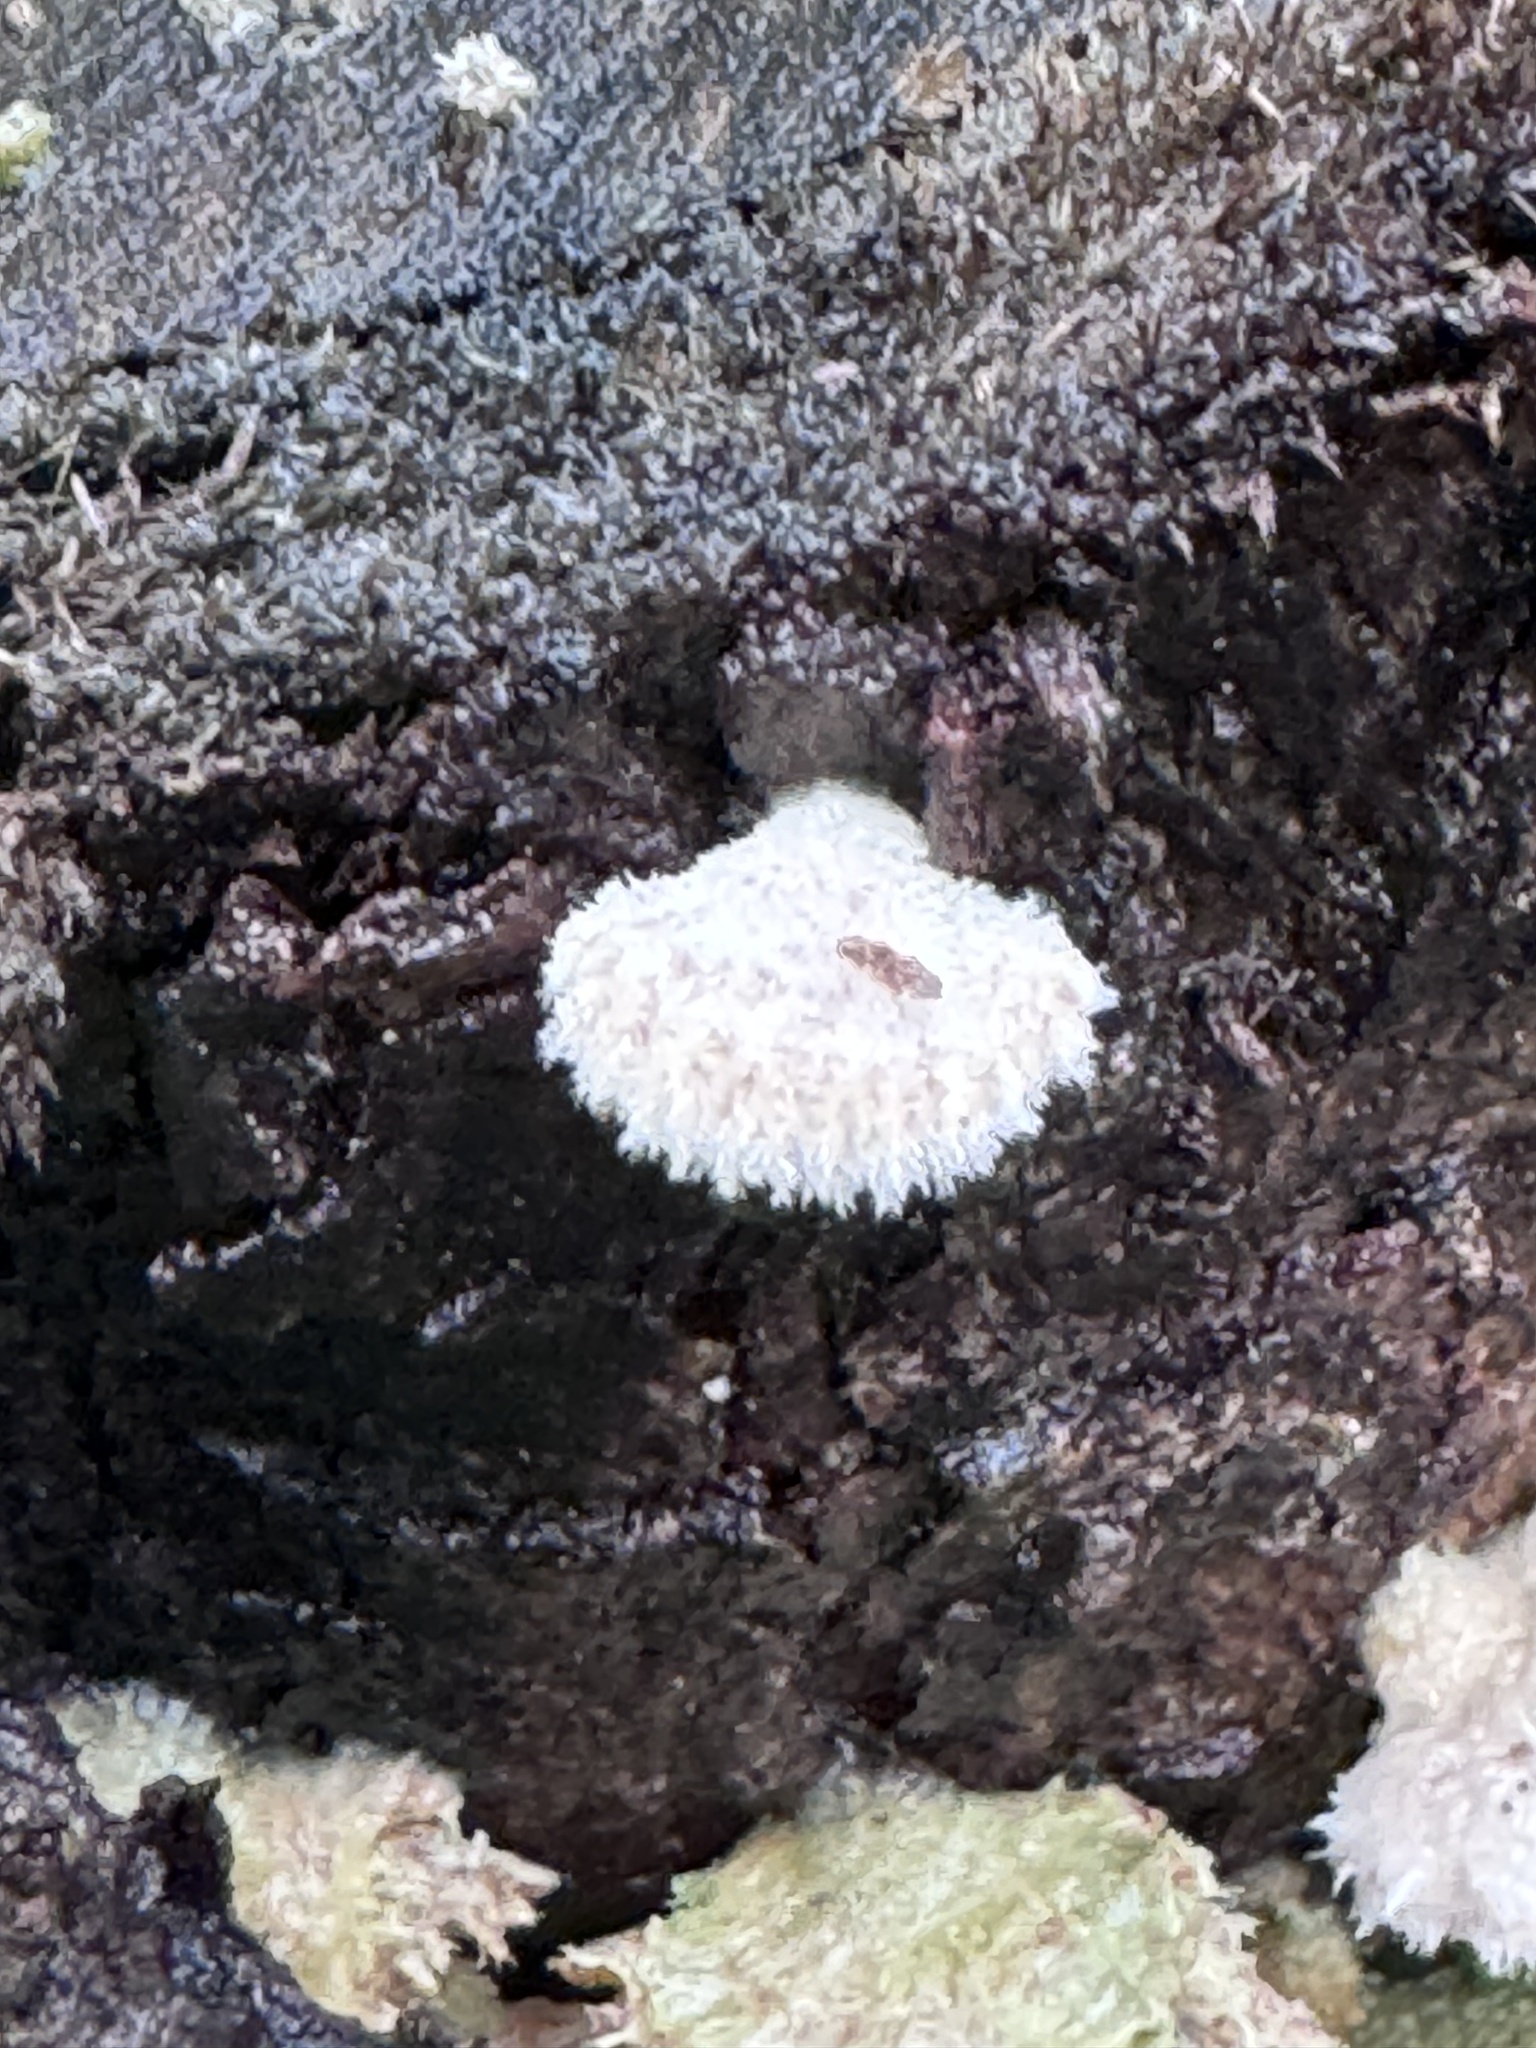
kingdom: Fungi
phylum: Basidiomycota
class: Agaricomycetes
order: Agaricales
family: Schizophyllaceae
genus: Schizophyllum
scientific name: Schizophyllum commune
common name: Common porecrust
